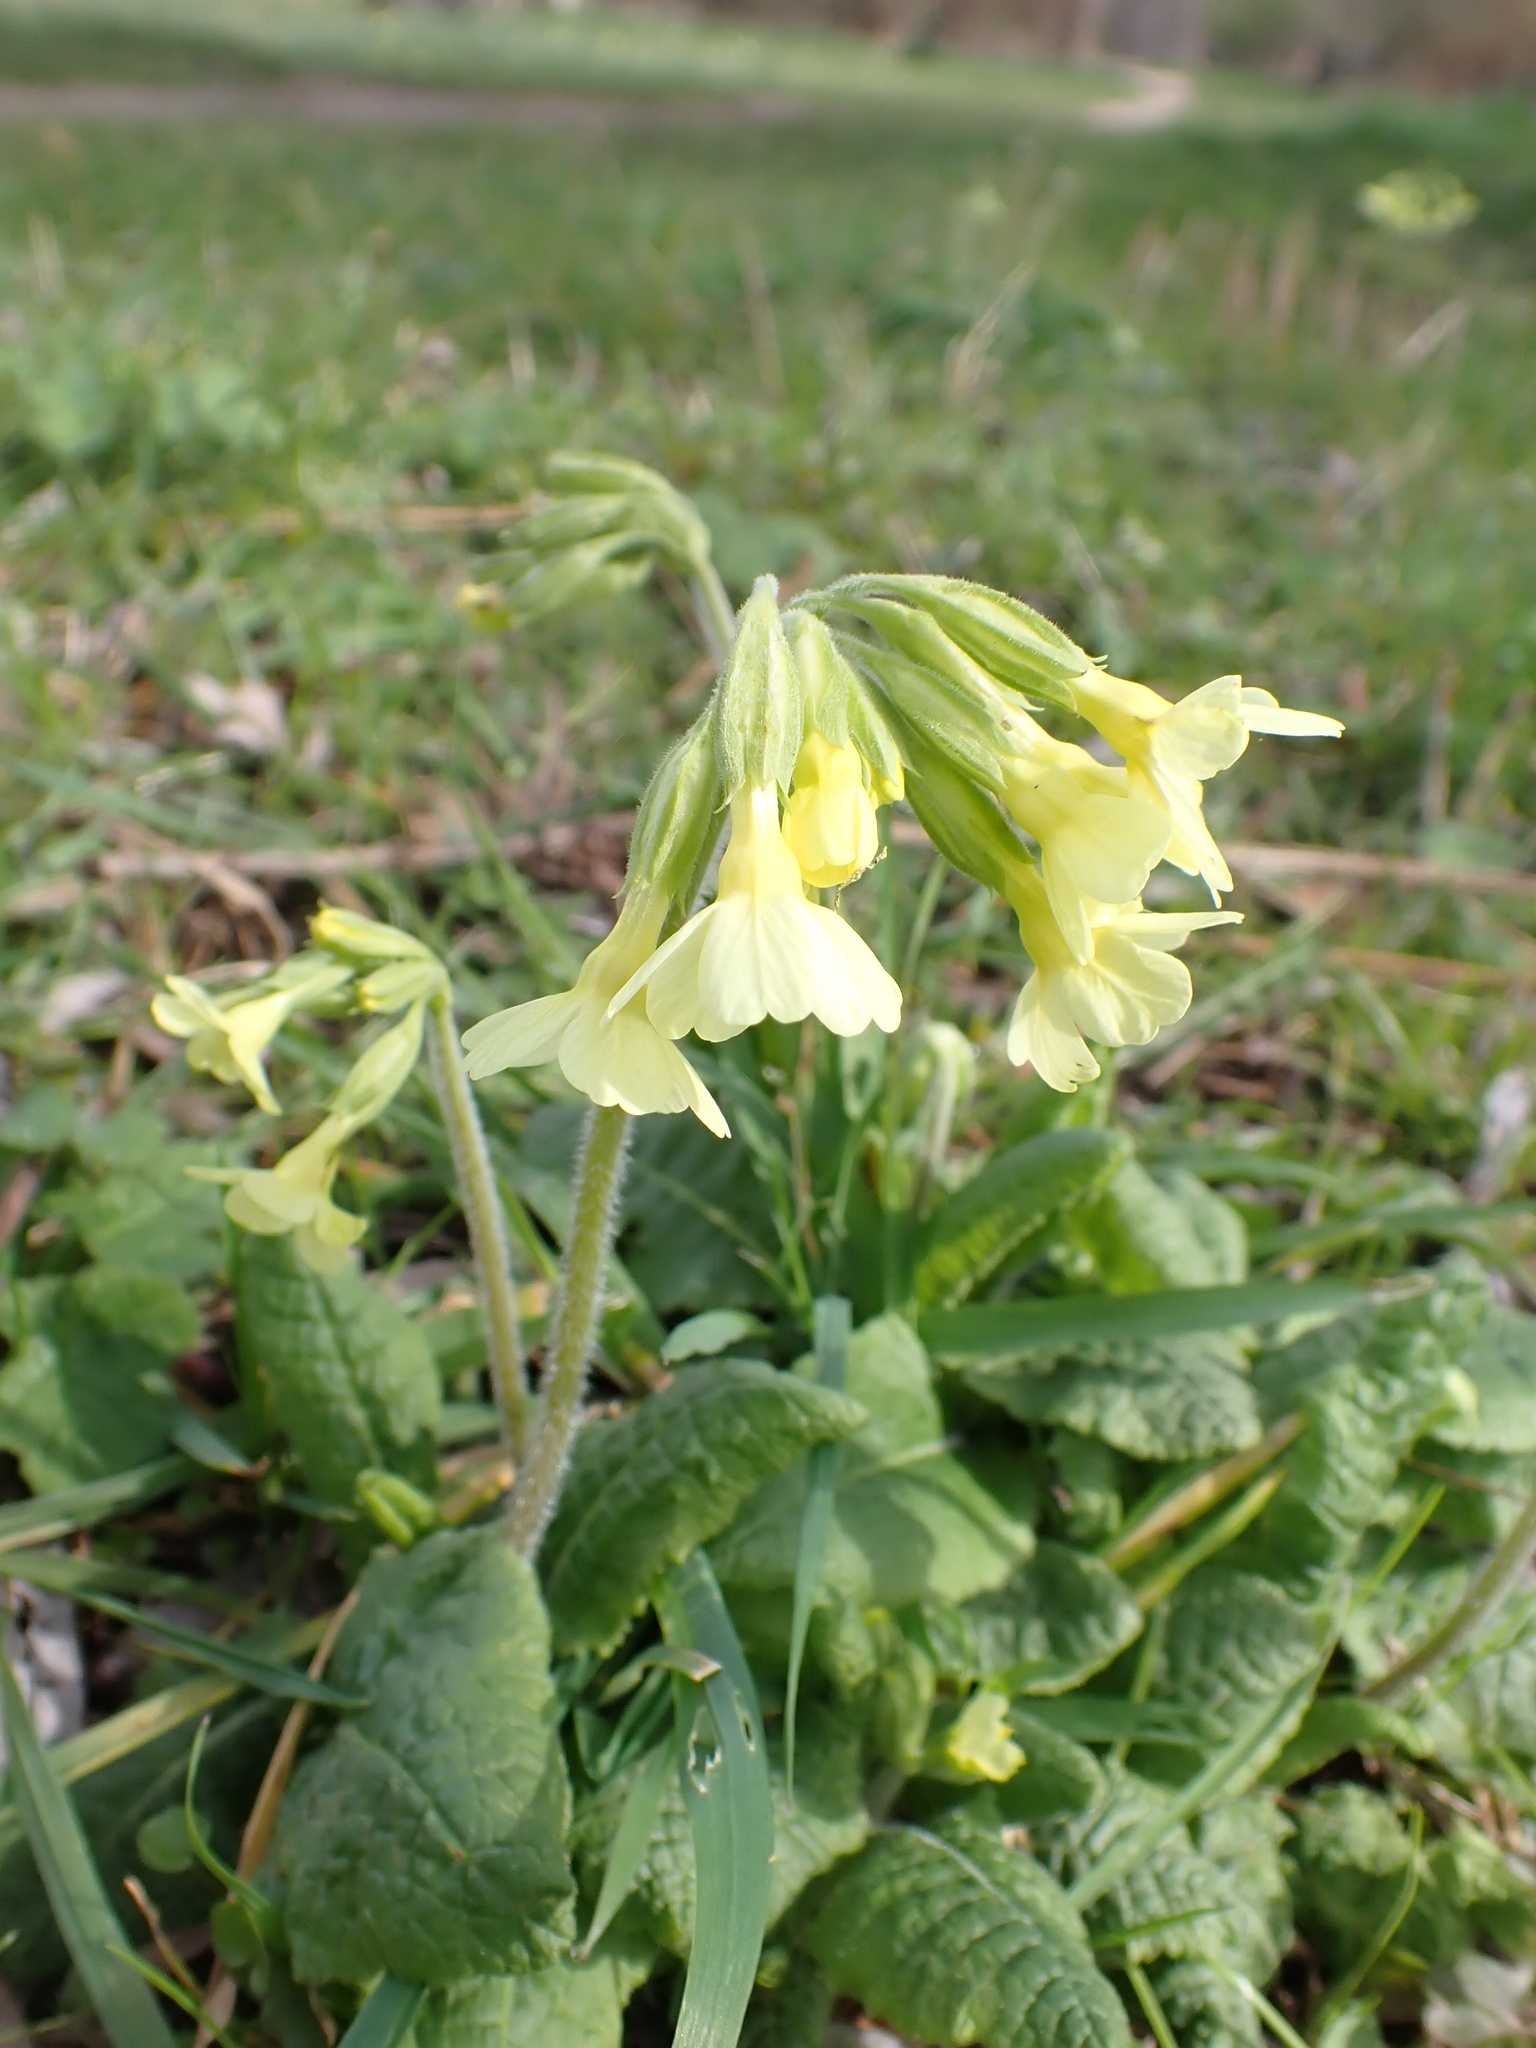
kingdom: Plantae
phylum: Tracheophyta
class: Magnoliopsida
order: Ericales
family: Primulaceae
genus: Primula
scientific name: Primula elatior
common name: Oxlip
